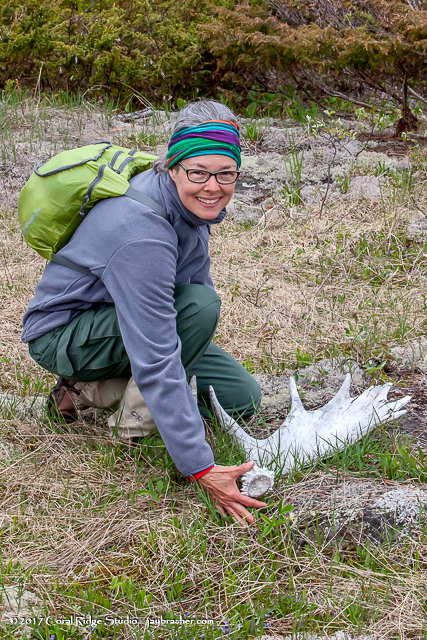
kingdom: Animalia
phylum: Chordata
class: Mammalia
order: Artiodactyla
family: Cervidae
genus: Alces
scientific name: Alces alces
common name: Moose
